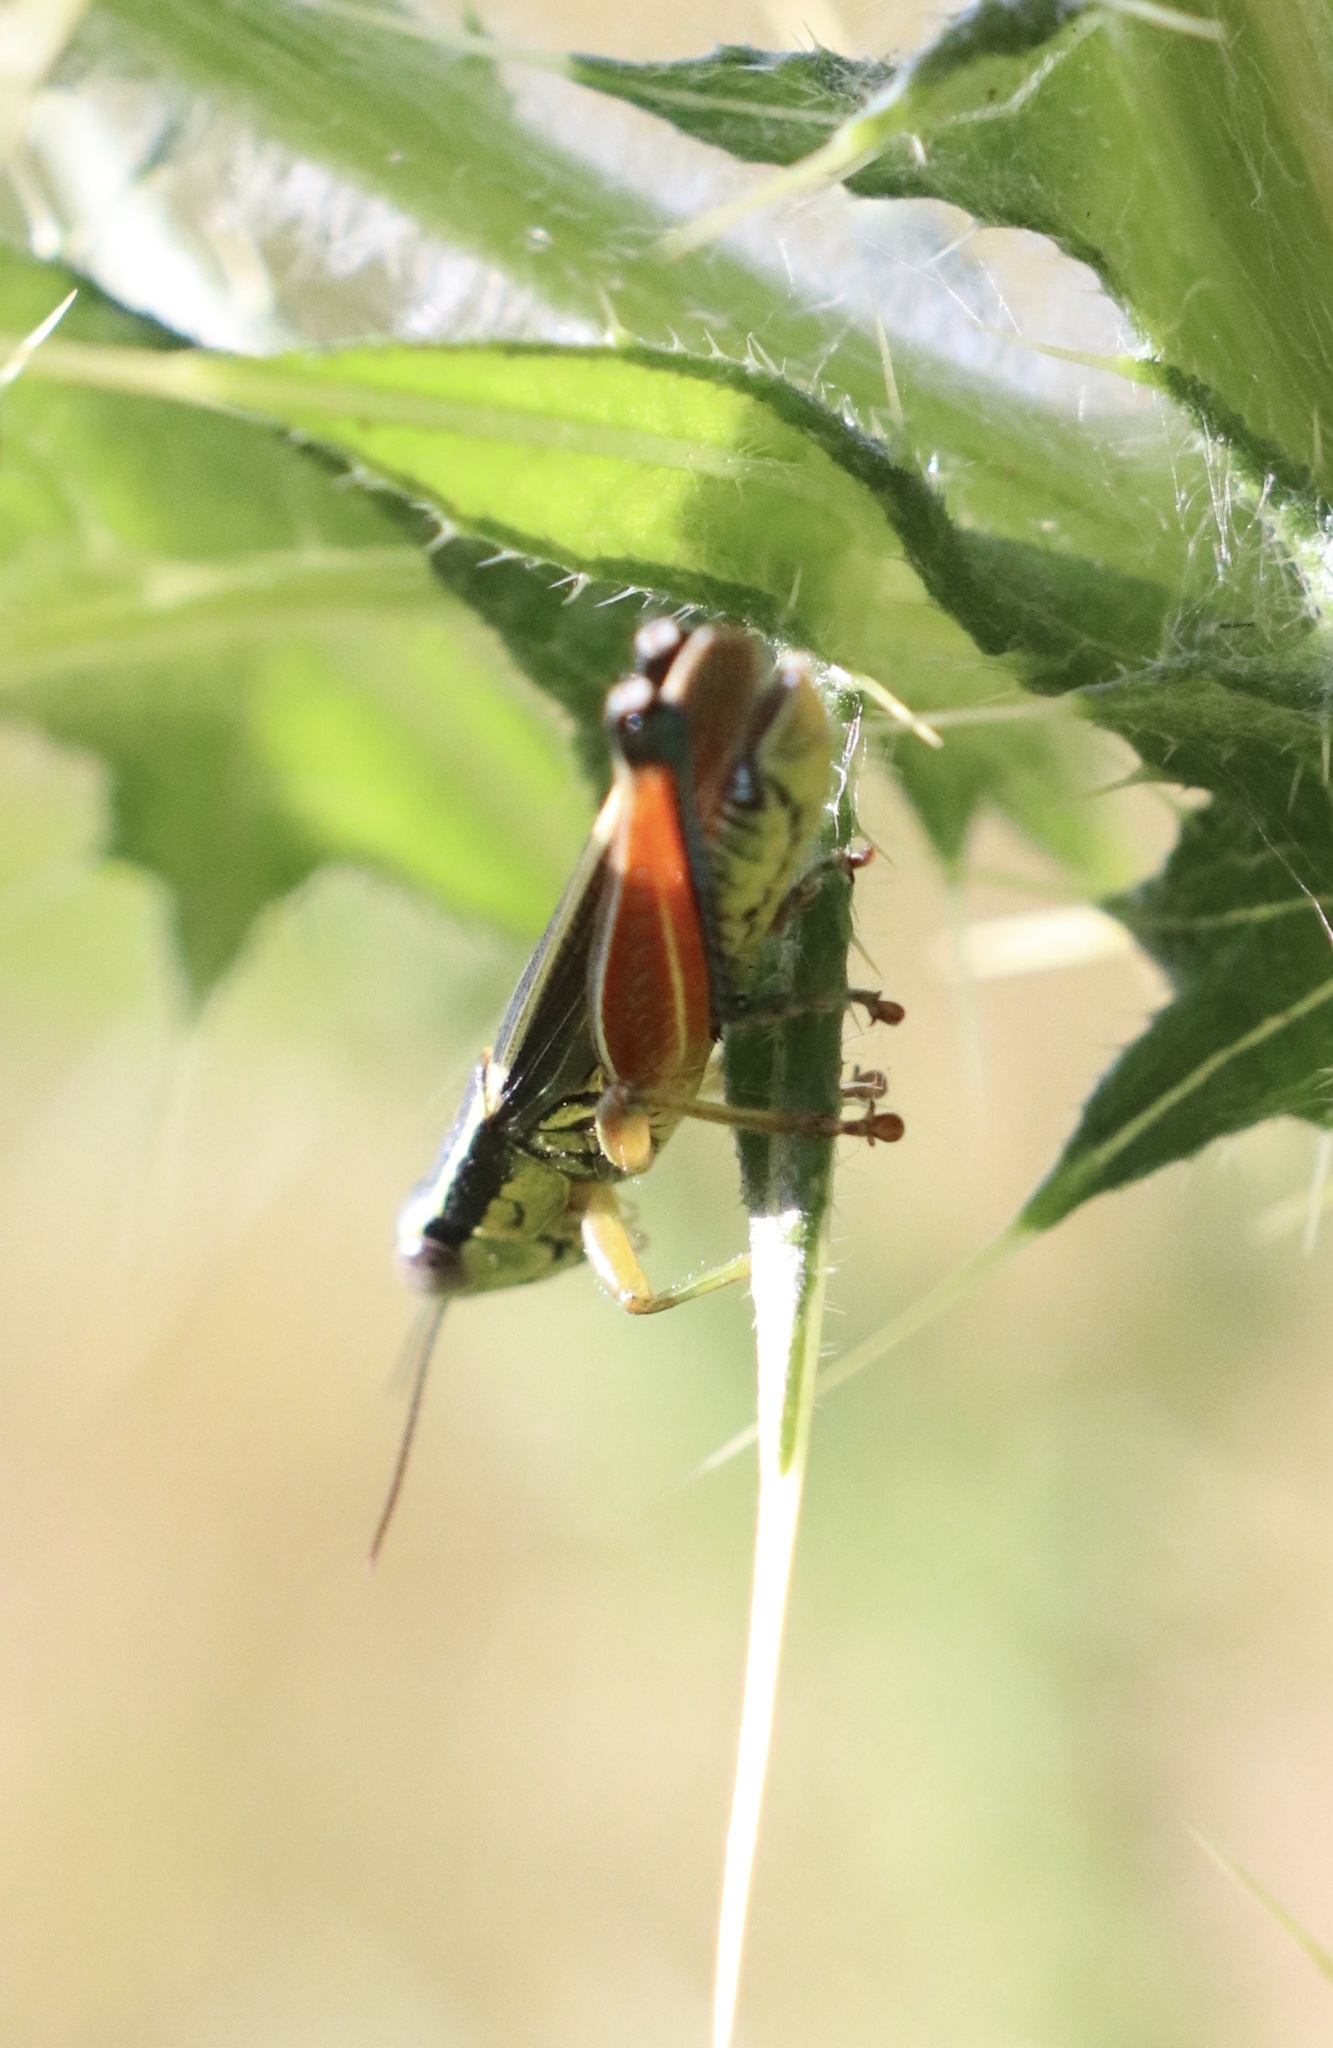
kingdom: Animalia
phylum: Arthropoda
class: Insecta
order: Orthoptera
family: Acrididae
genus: Dichroplus
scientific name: Dichroplus vittiger
